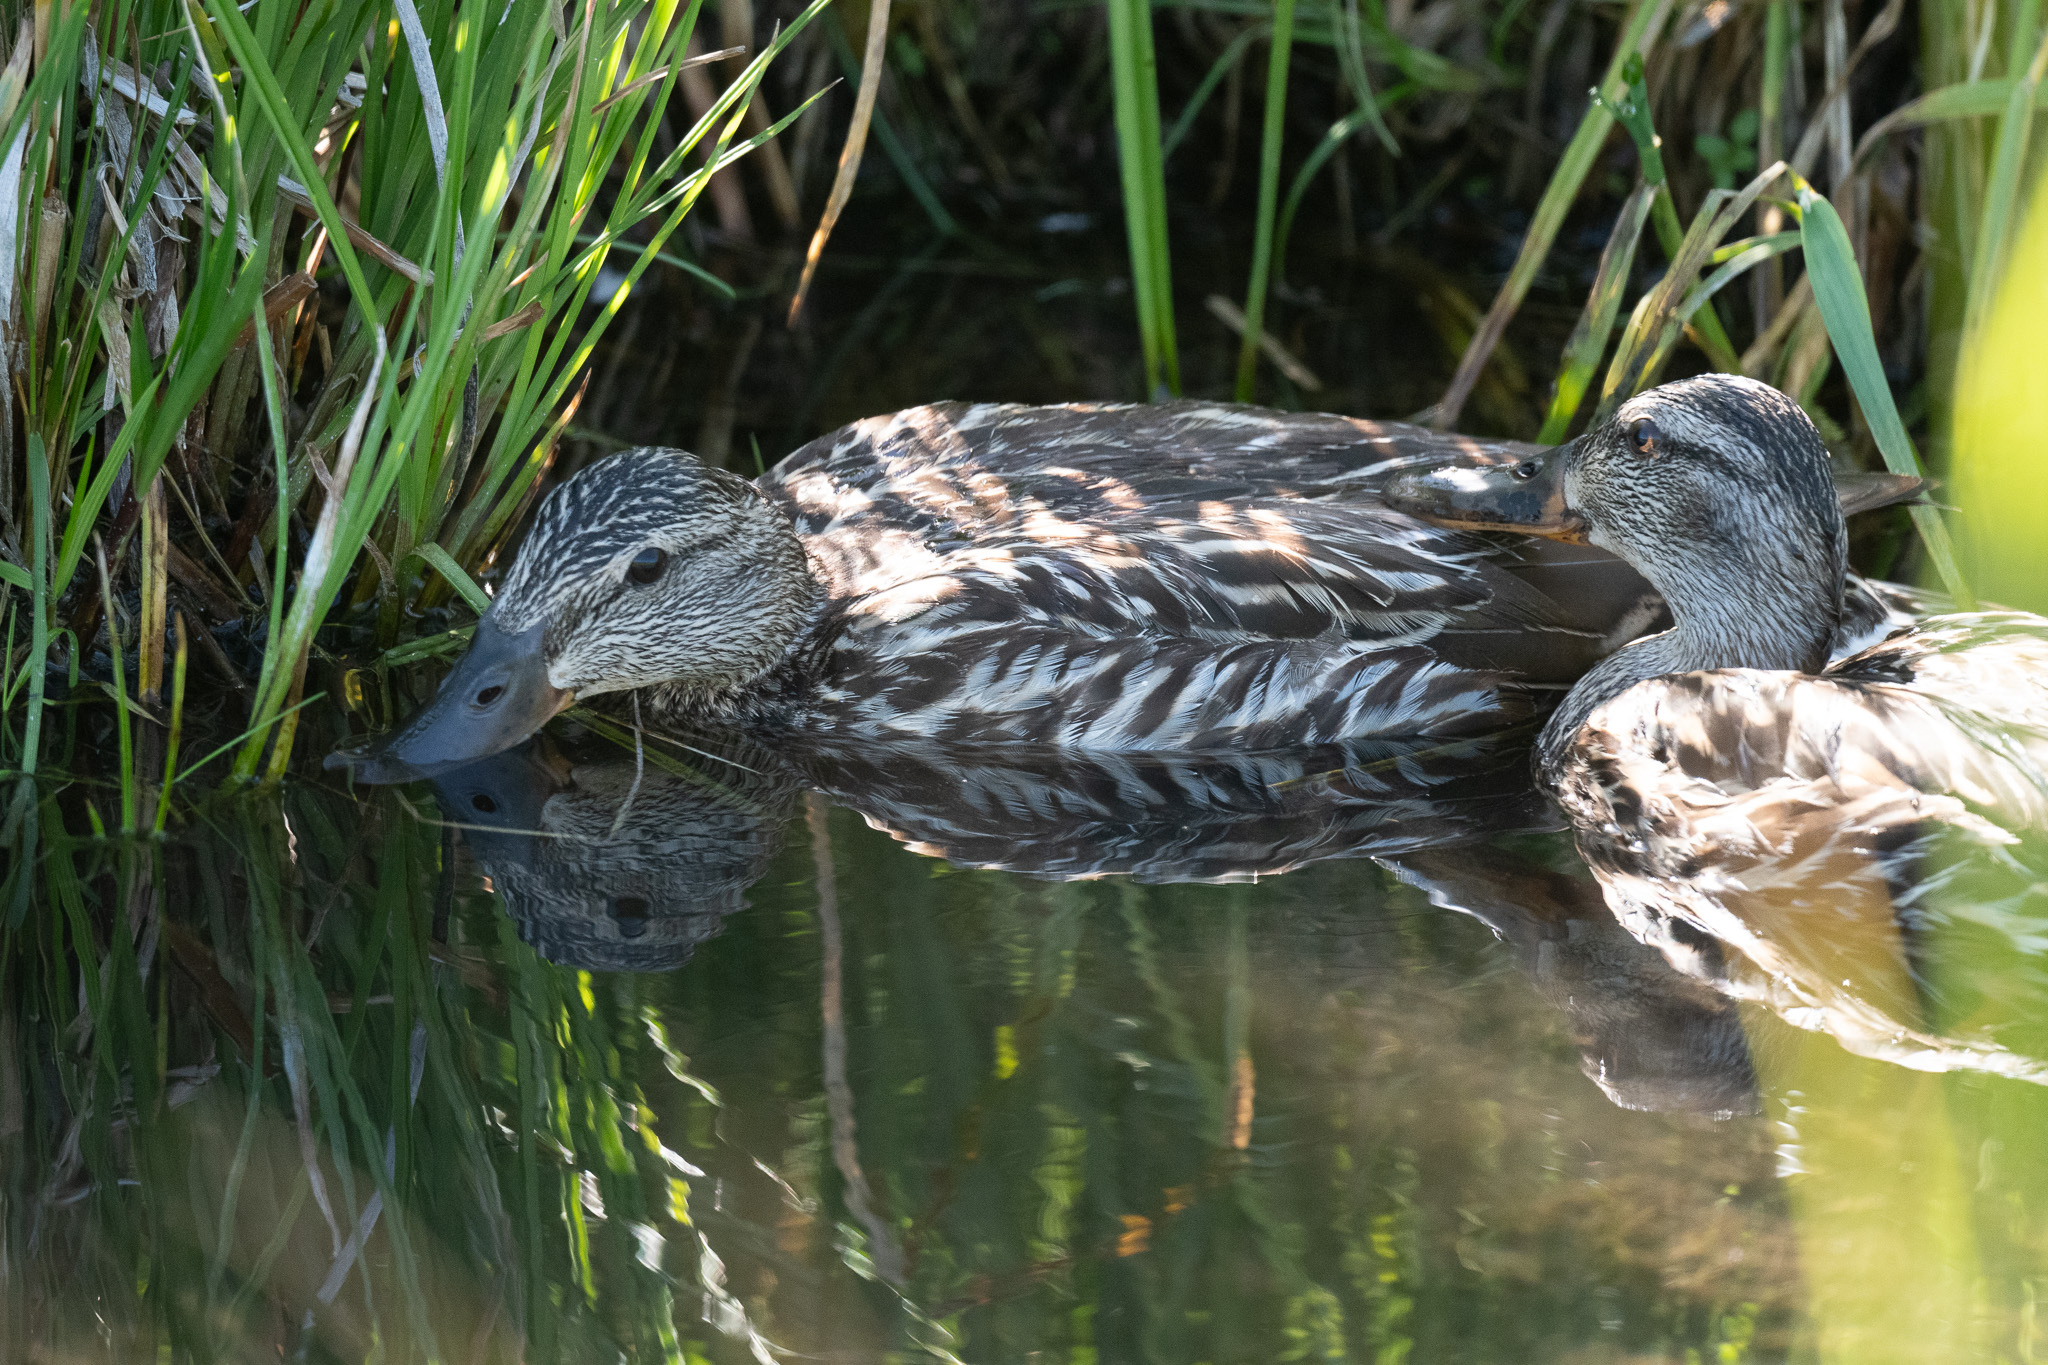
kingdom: Animalia
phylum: Chordata
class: Aves
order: Anseriformes
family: Anatidae
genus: Anas
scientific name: Anas platyrhynchos
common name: Mallard
